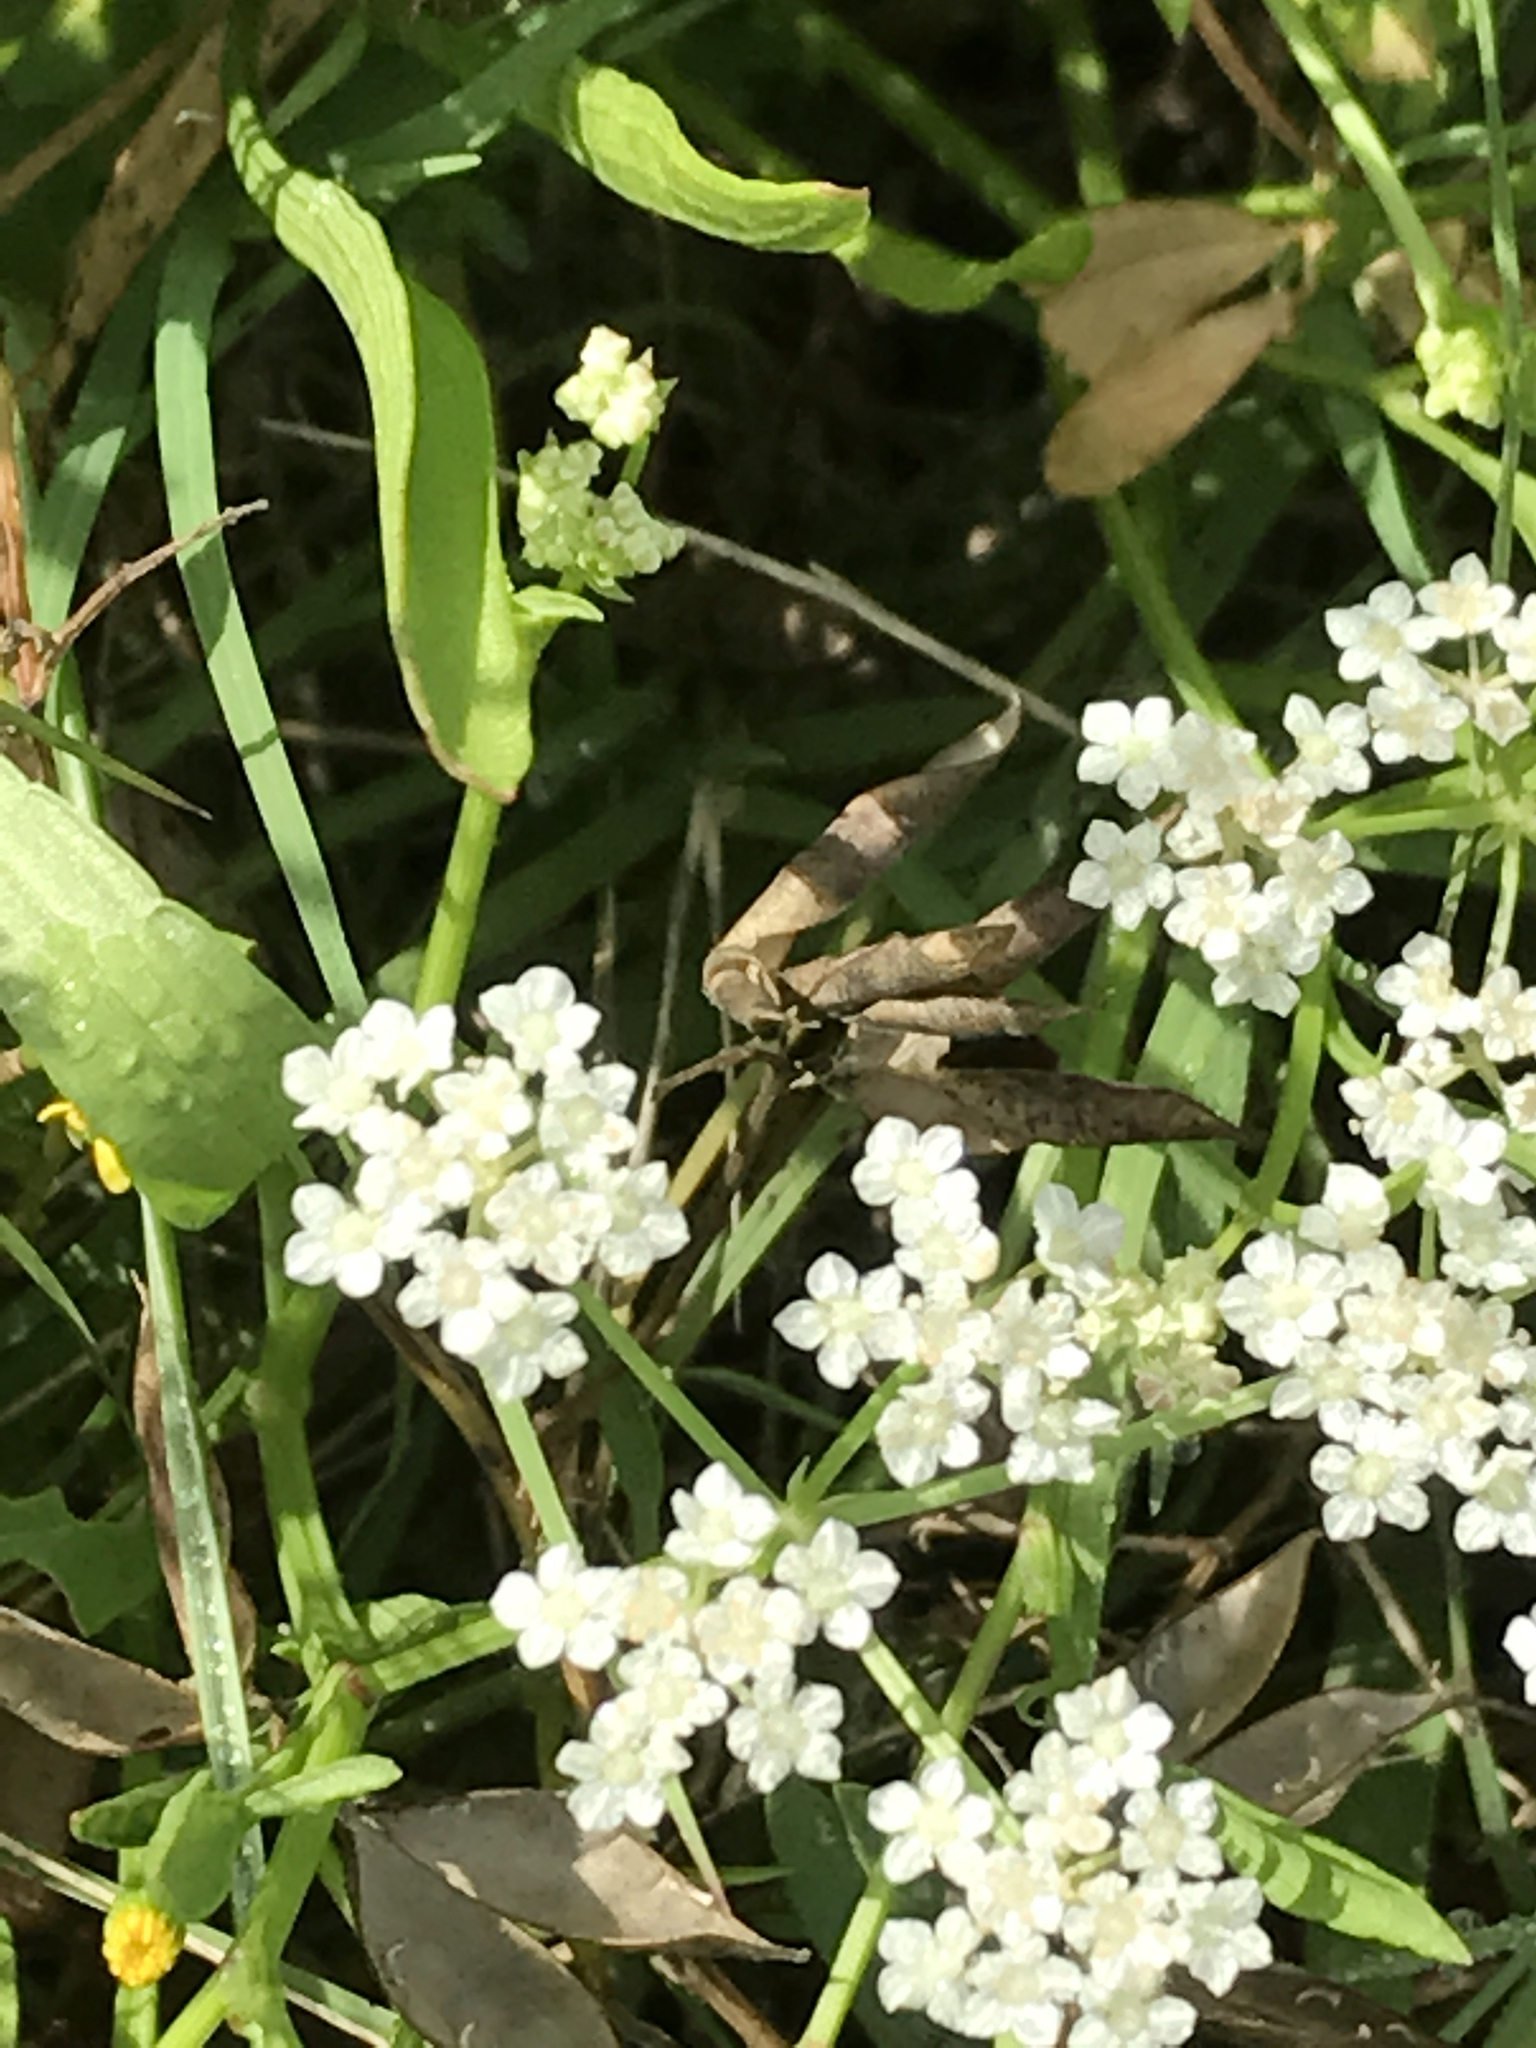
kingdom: Plantae
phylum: Tracheophyta
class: Magnoliopsida
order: Apiales
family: Apiaceae
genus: Limnosciadium
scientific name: Limnosciadium pinnatum
